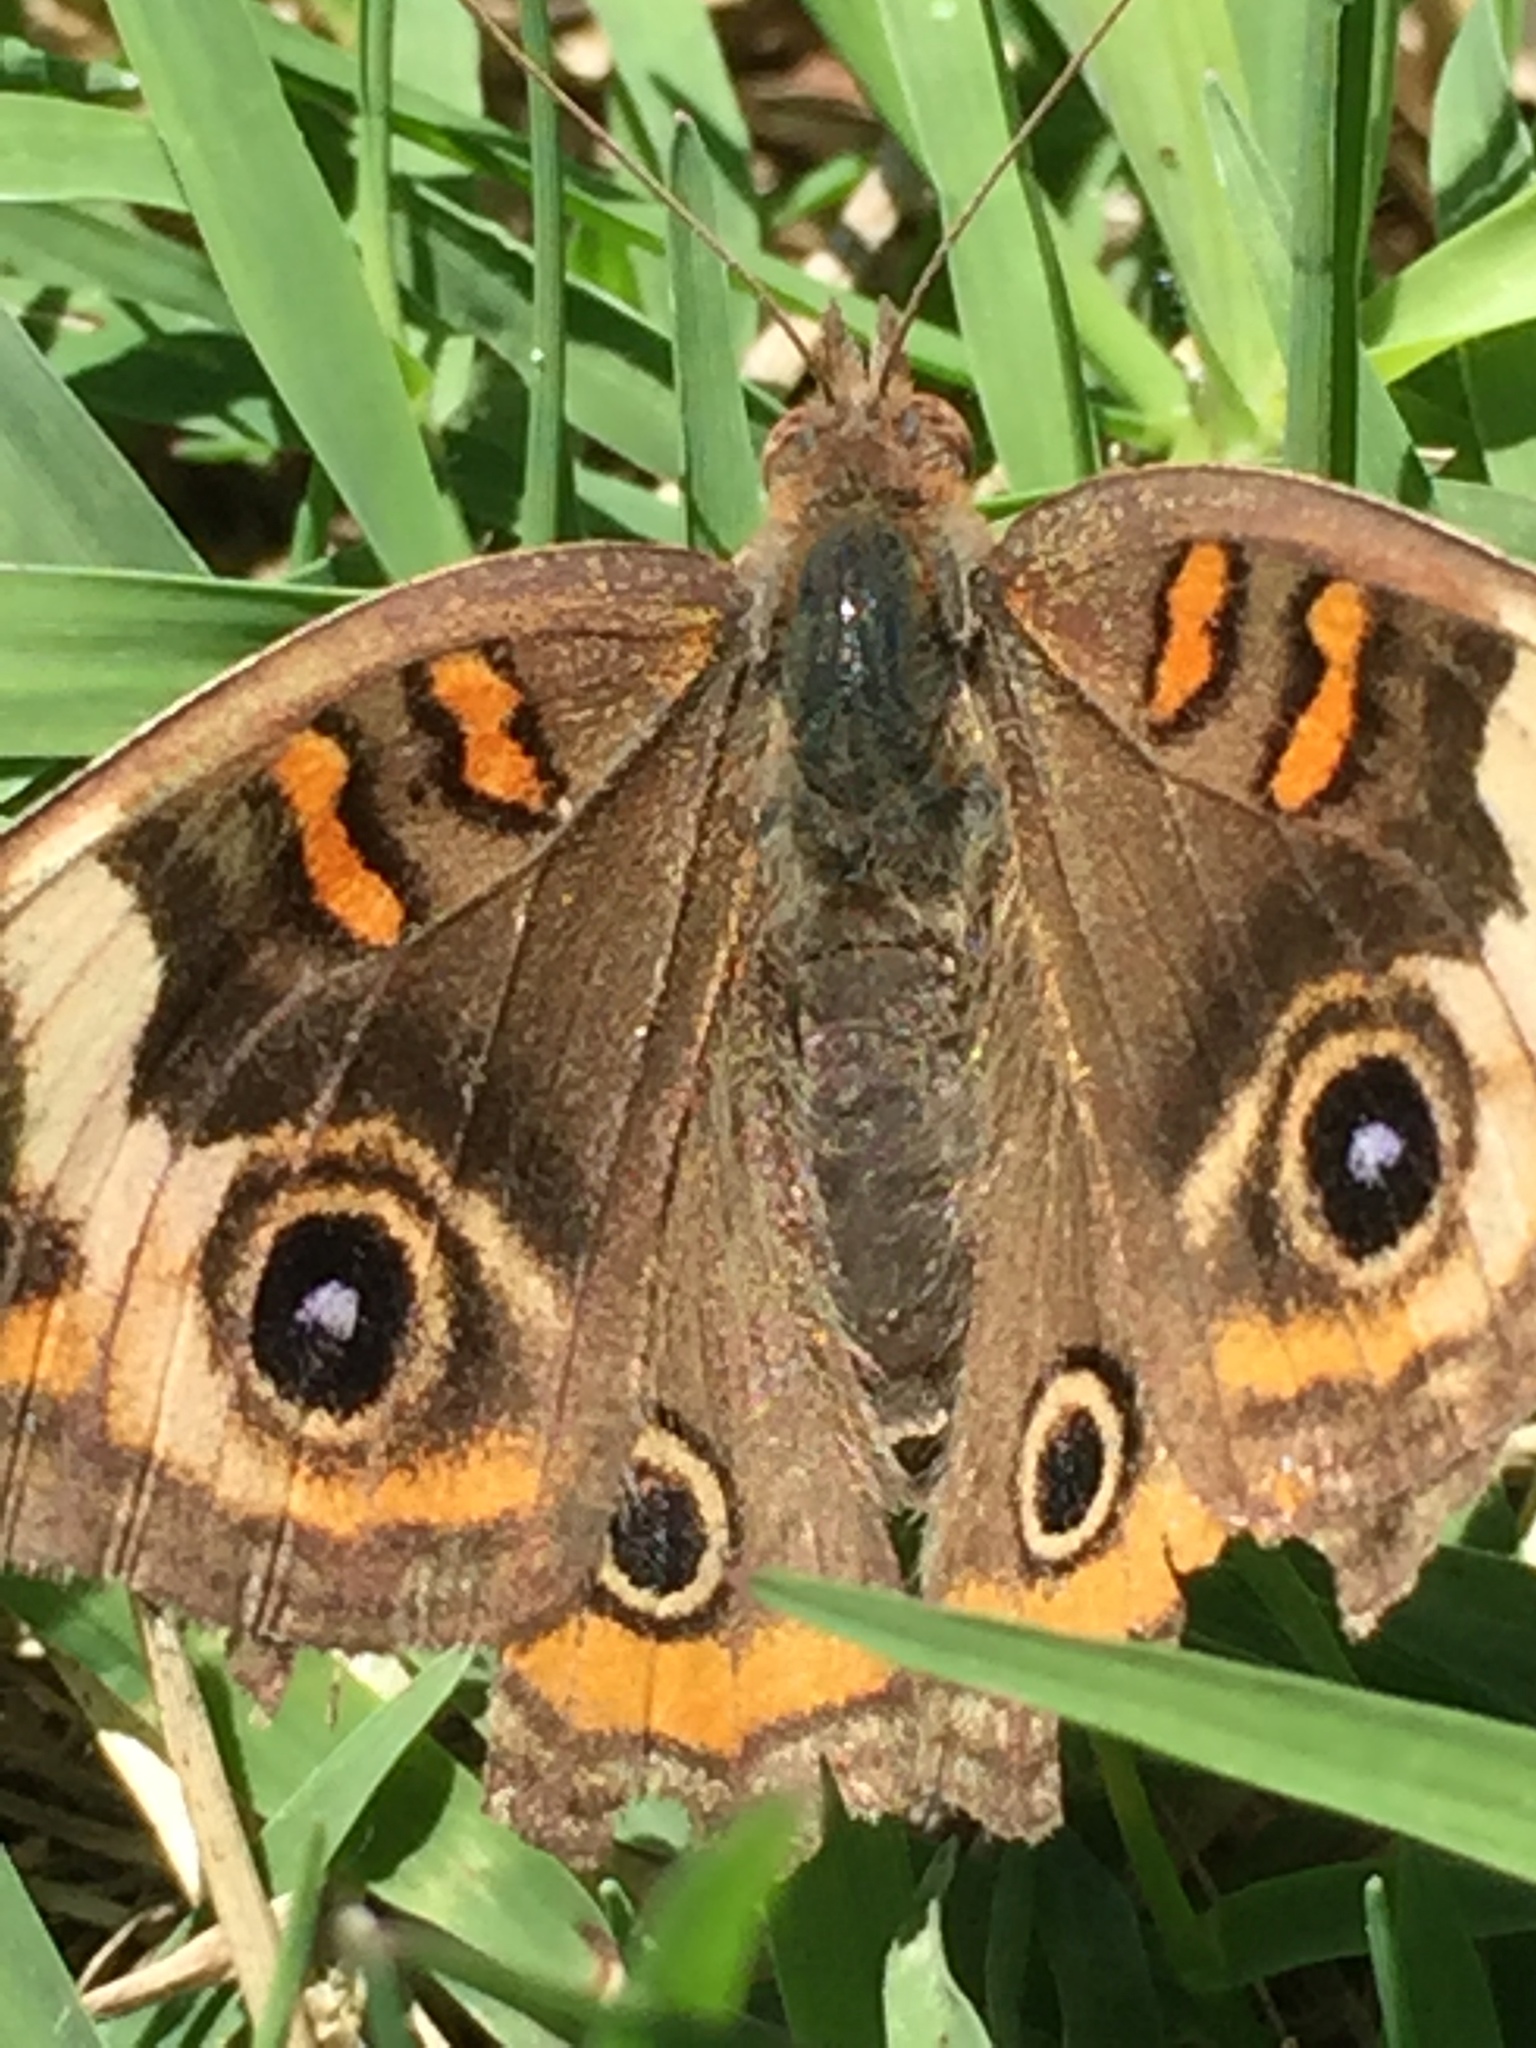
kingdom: Animalia
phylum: Arthropoda
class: Insecta
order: Lepidoptera
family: Nymphalidae
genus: Junonia
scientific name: Junonia coenia
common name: Common buckeye
